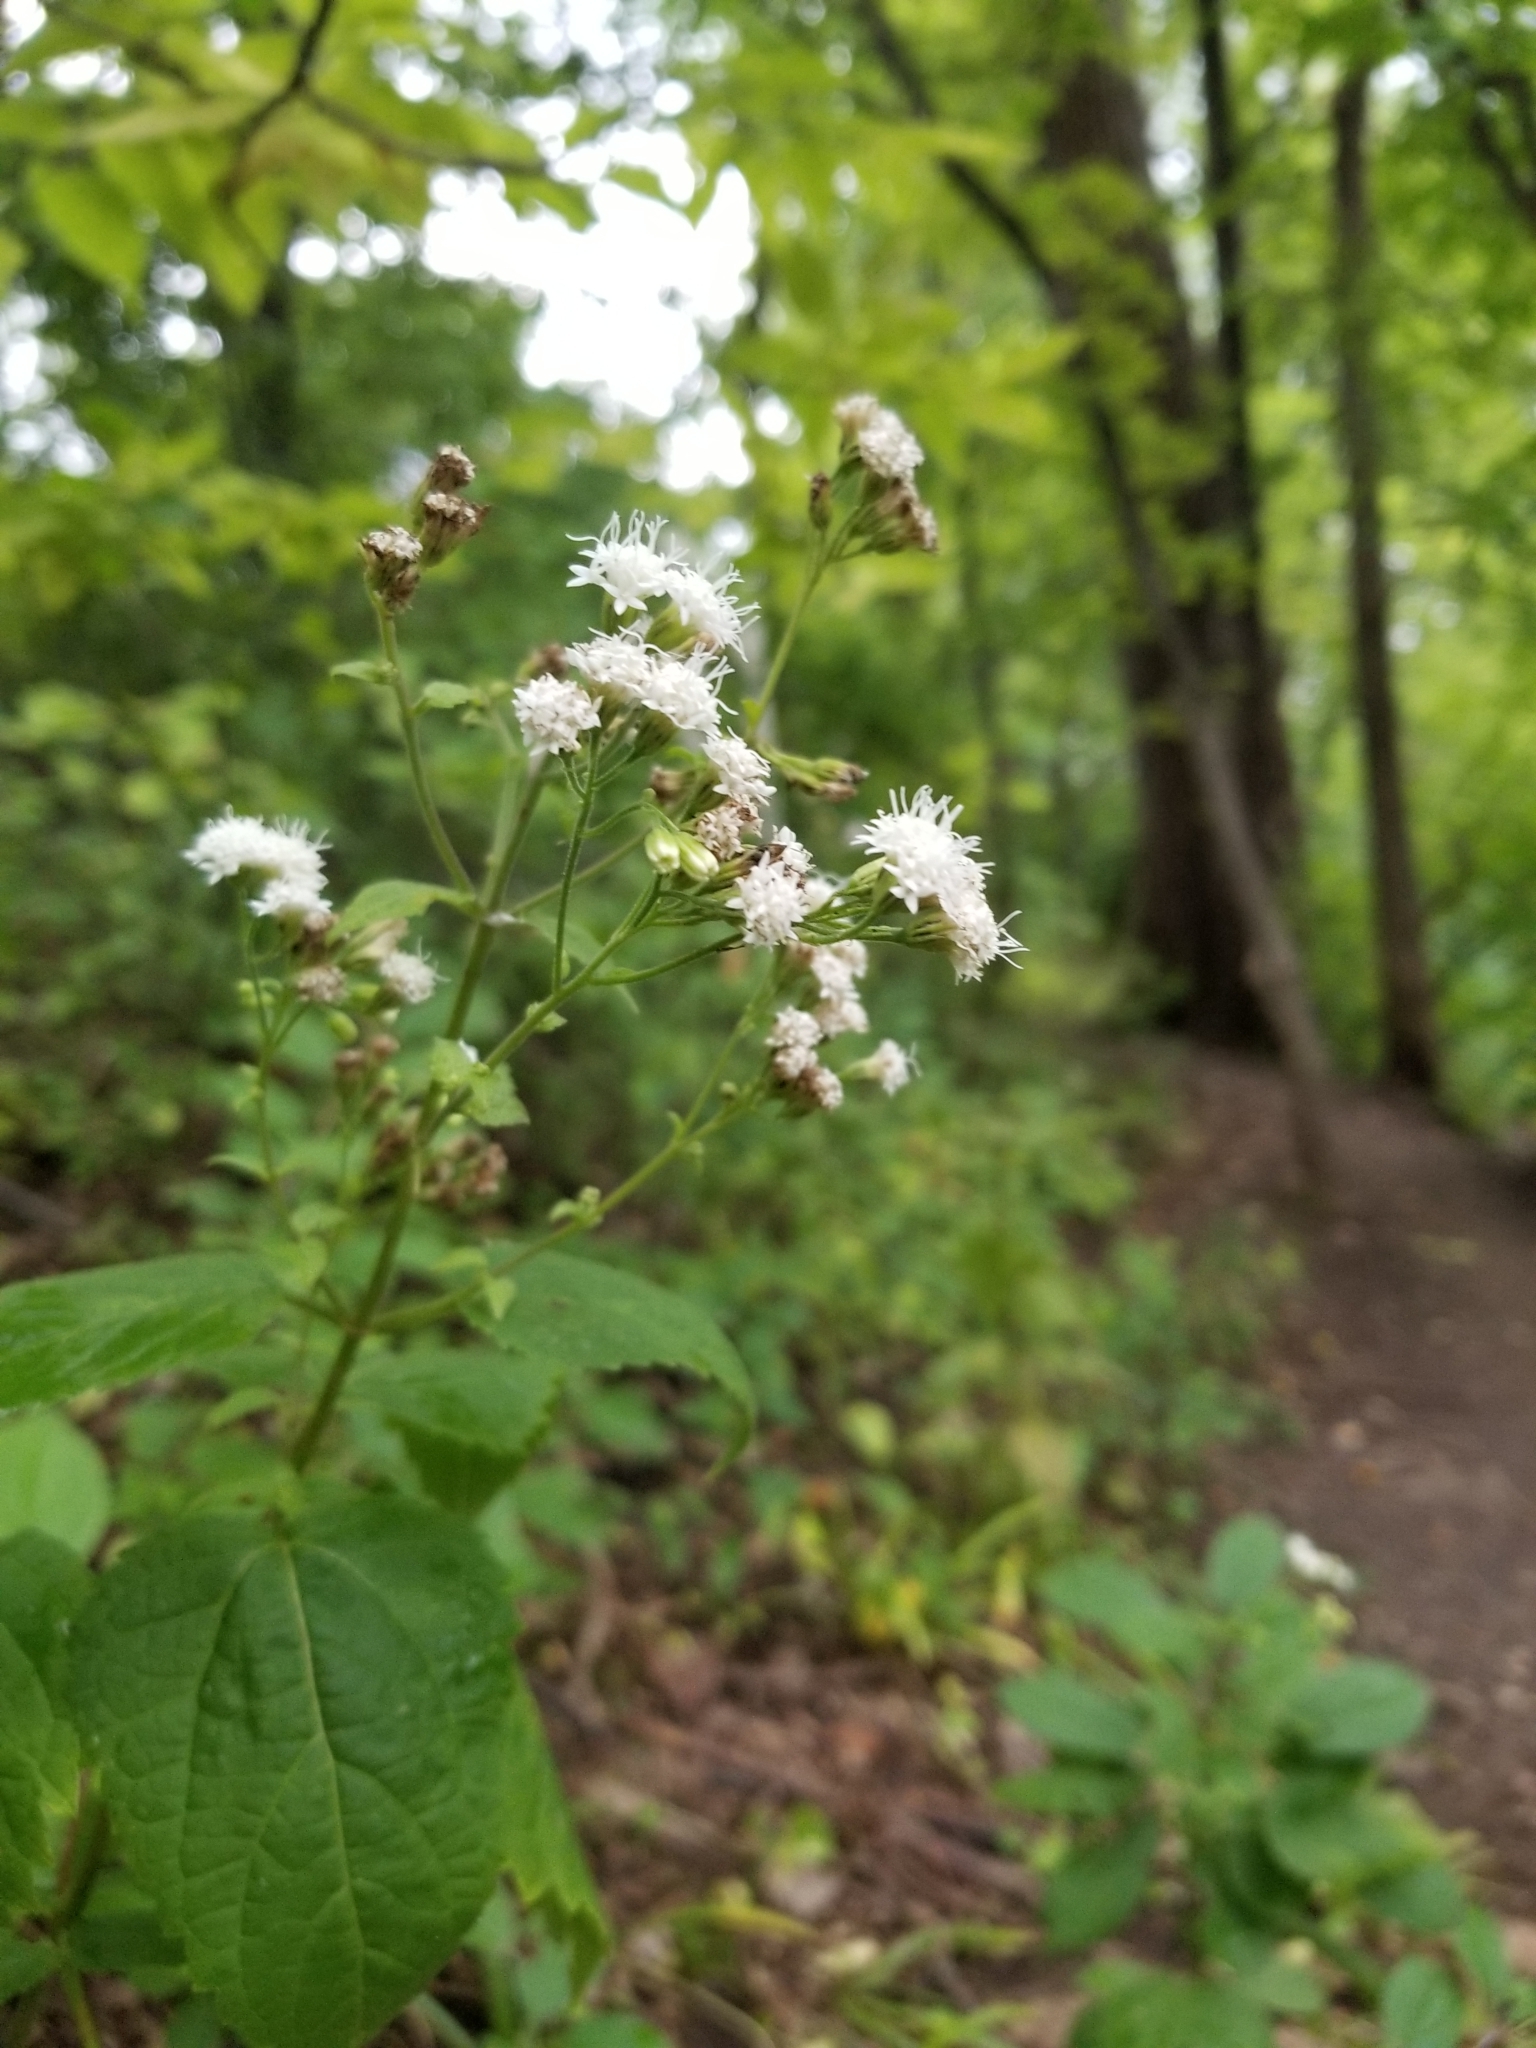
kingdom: Plantae
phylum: Tracheophyta
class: Magnoliopsida
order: Asterales
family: Asteraceae
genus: Ageratina
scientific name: Ageratina altissima
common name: White snakeroot
